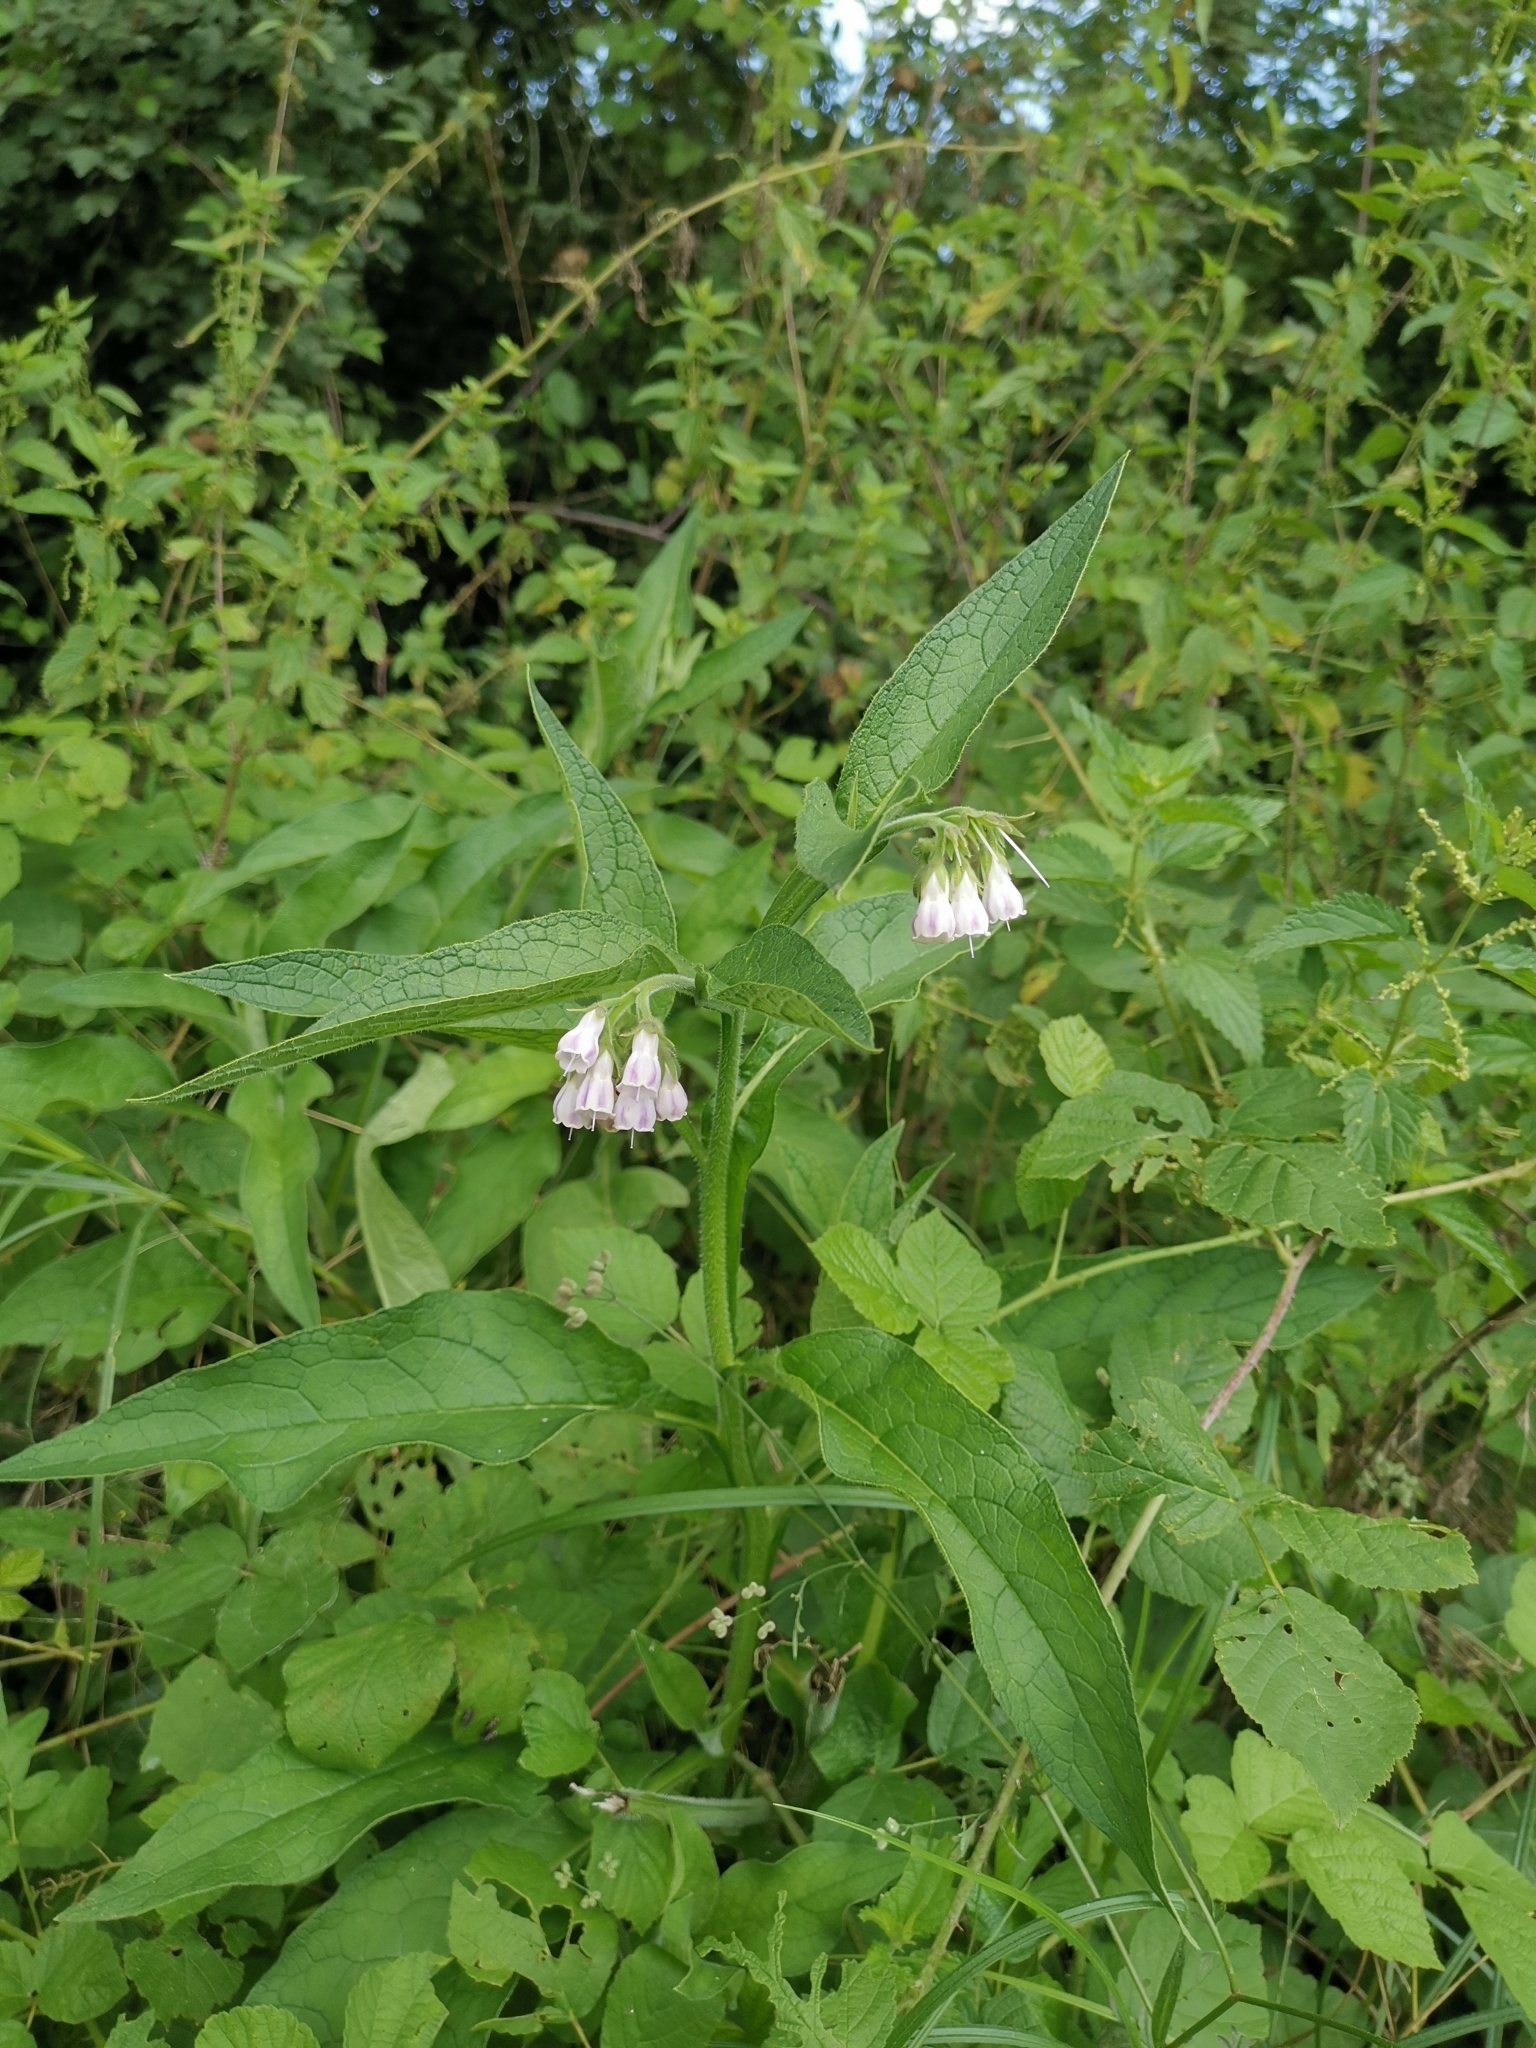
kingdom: Plantae
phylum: Tracheophyta
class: Magnoliopsida
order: Boraginales
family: Boraginaceae
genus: Symphytum
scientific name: Symphytum officinale
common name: Common comfrey
